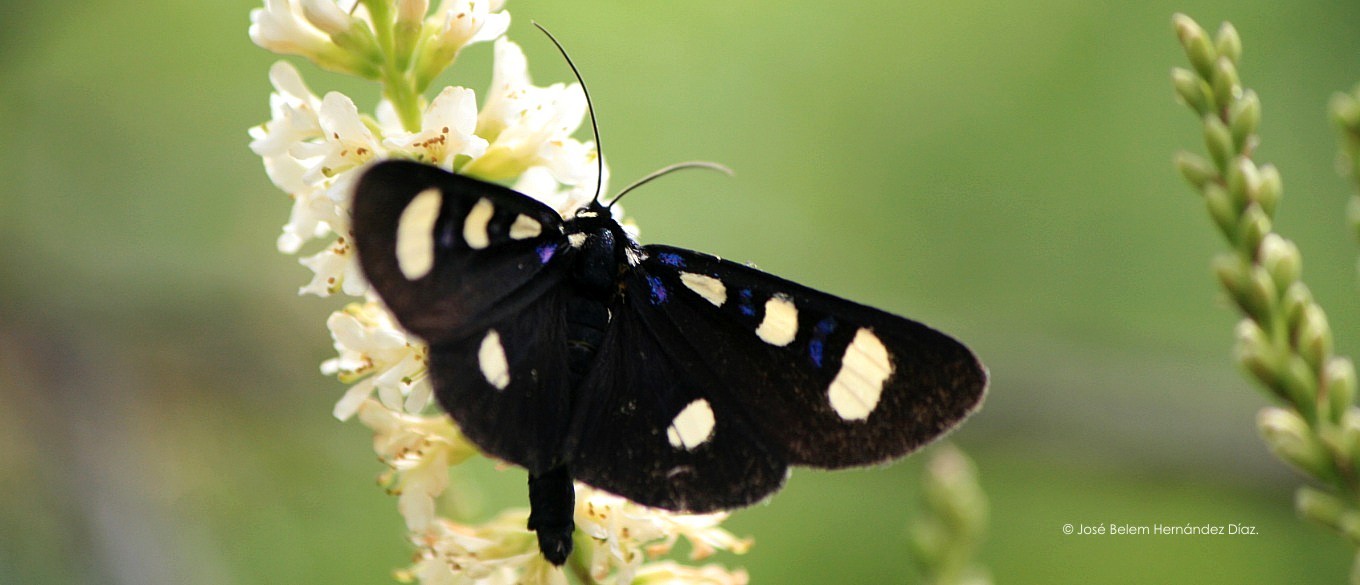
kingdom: Animalia
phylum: Arthropoda
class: Insecta
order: Lepidoptera
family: Noctuidae
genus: Alypiodes
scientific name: Alypiodes bimaculata
